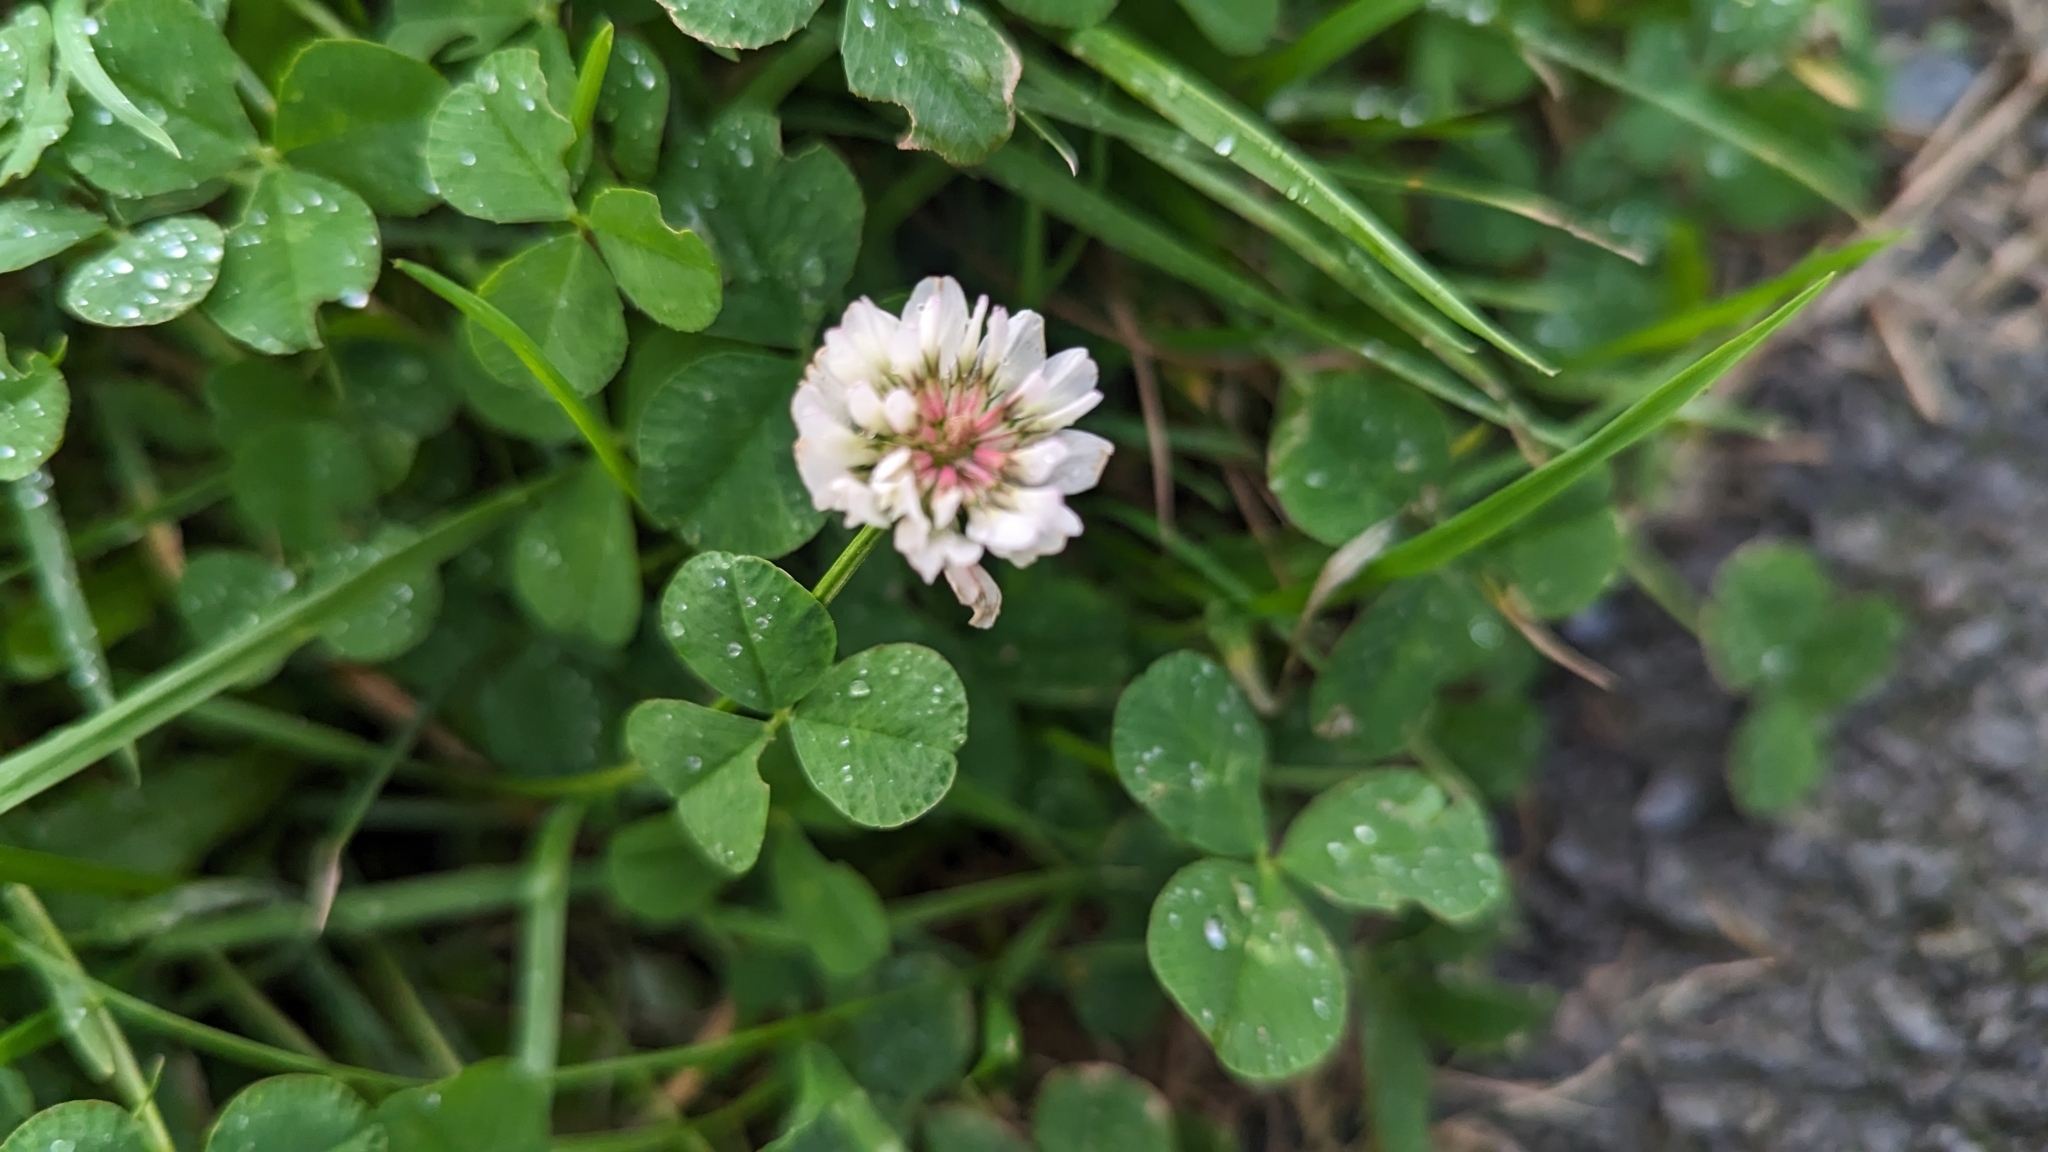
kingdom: Plantae
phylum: Tracheophyta
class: Magnoliopsida
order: Fabales
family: Fabaceae
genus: Trifolium
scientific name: Trifolium repens
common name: White clover
